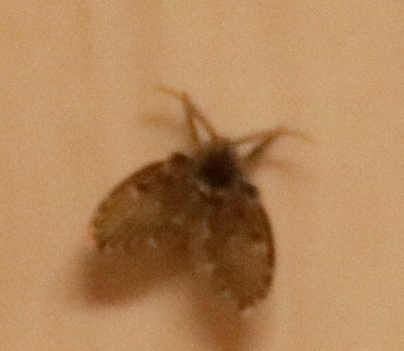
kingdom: Animalia
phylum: Arthropoda
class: Insecta
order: Diptera
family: Psychodidae
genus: Clogmia
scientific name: Clogmia albipunctatus
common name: White-spotted moth fly
